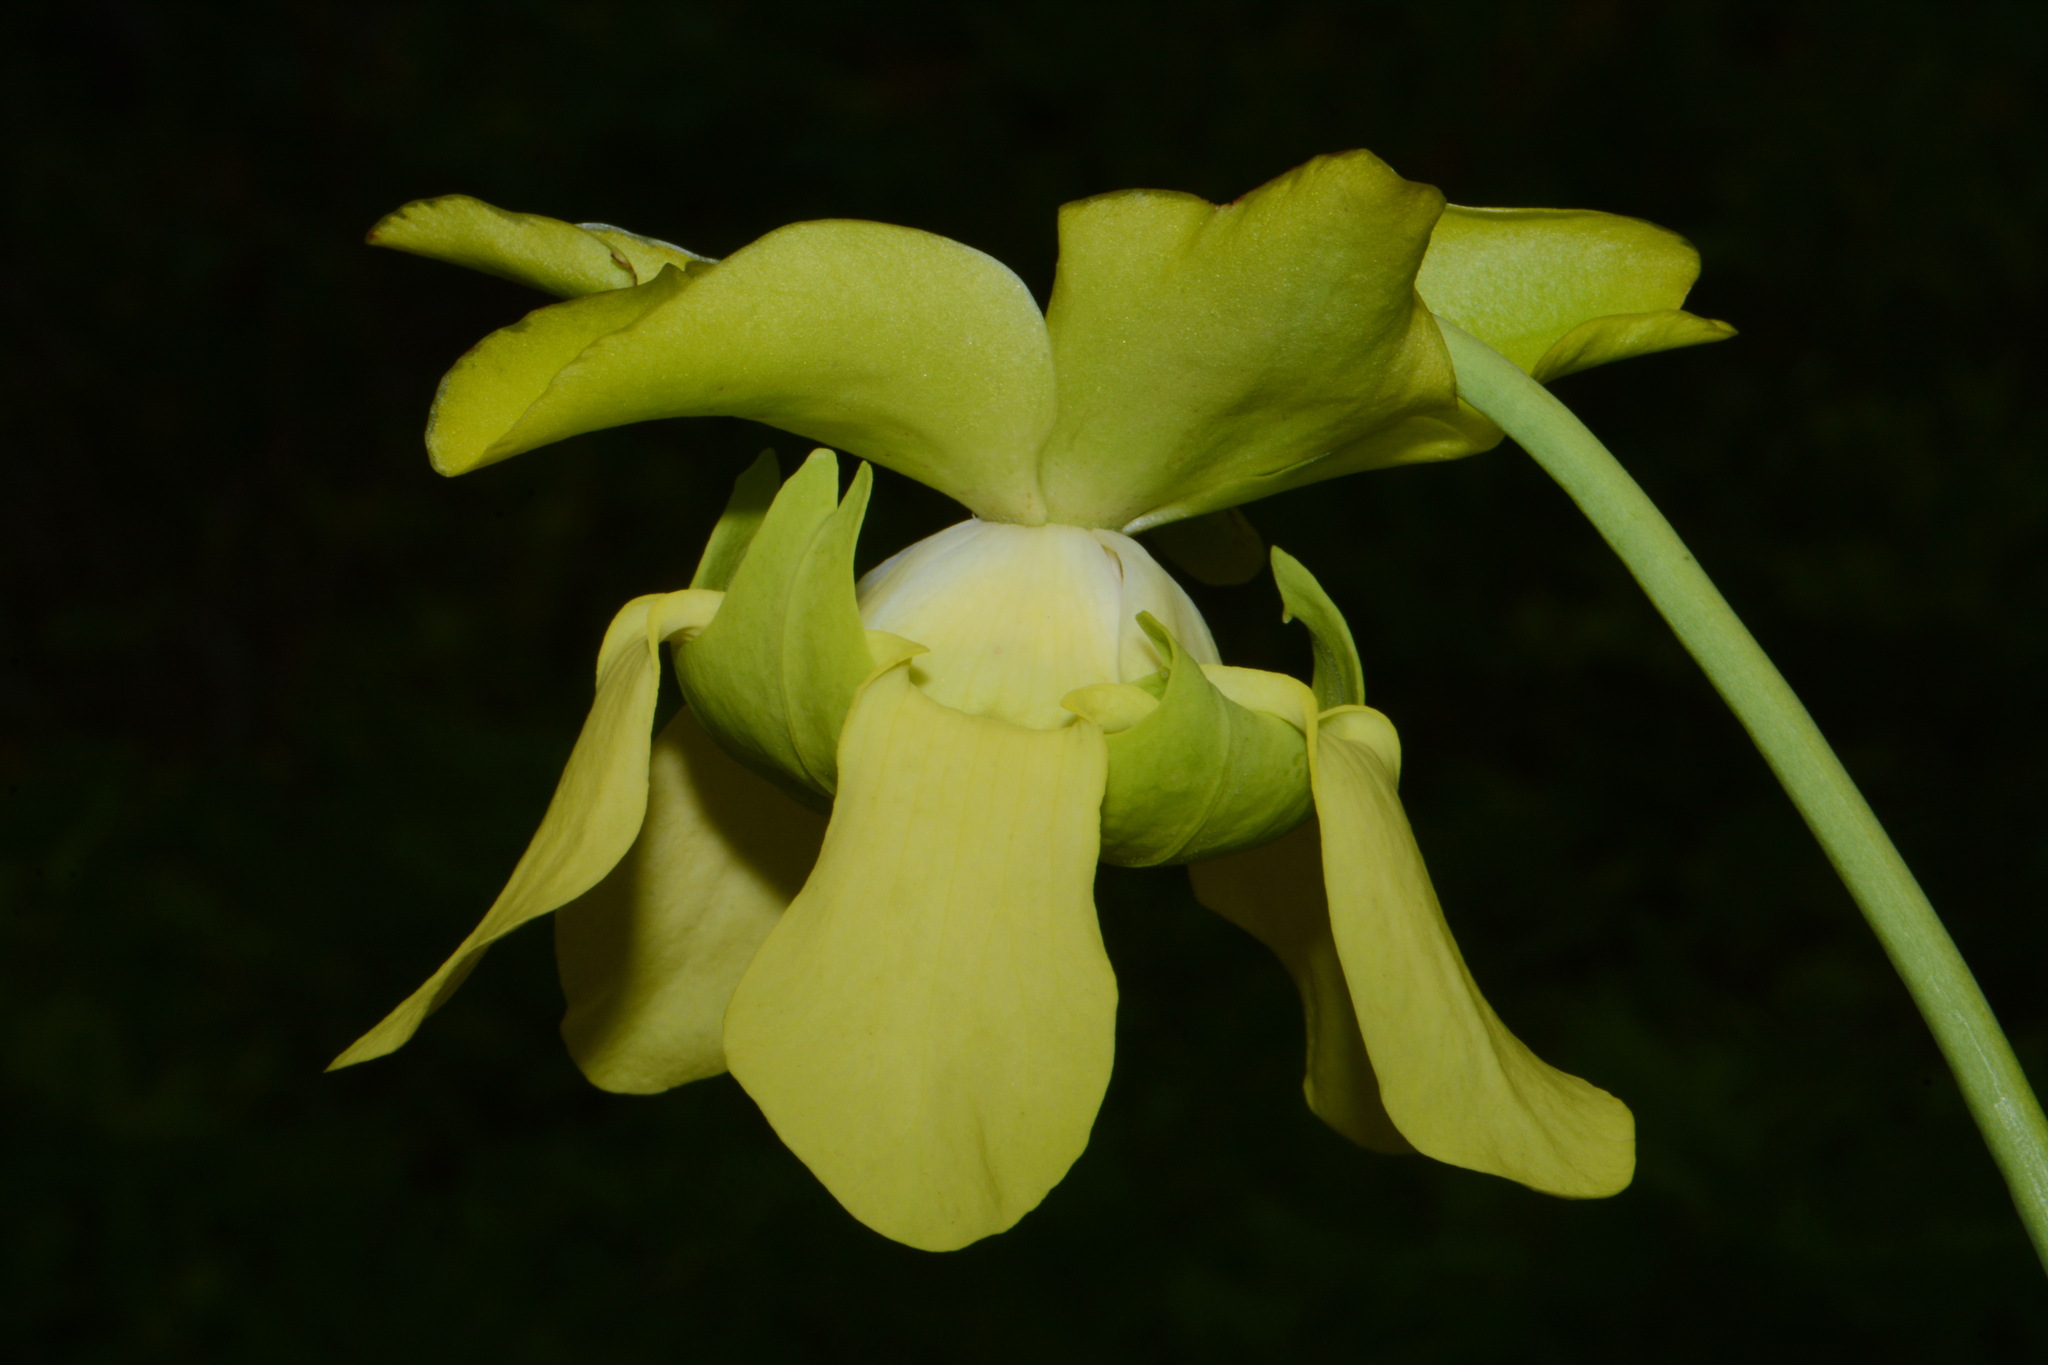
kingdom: Plantae
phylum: Tracheophyta
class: Magnoliopsida
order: Ericales
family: Sarraceniaceae
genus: Sarracenia
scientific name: Sarracenia oreophila
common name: Green pitcherplant
